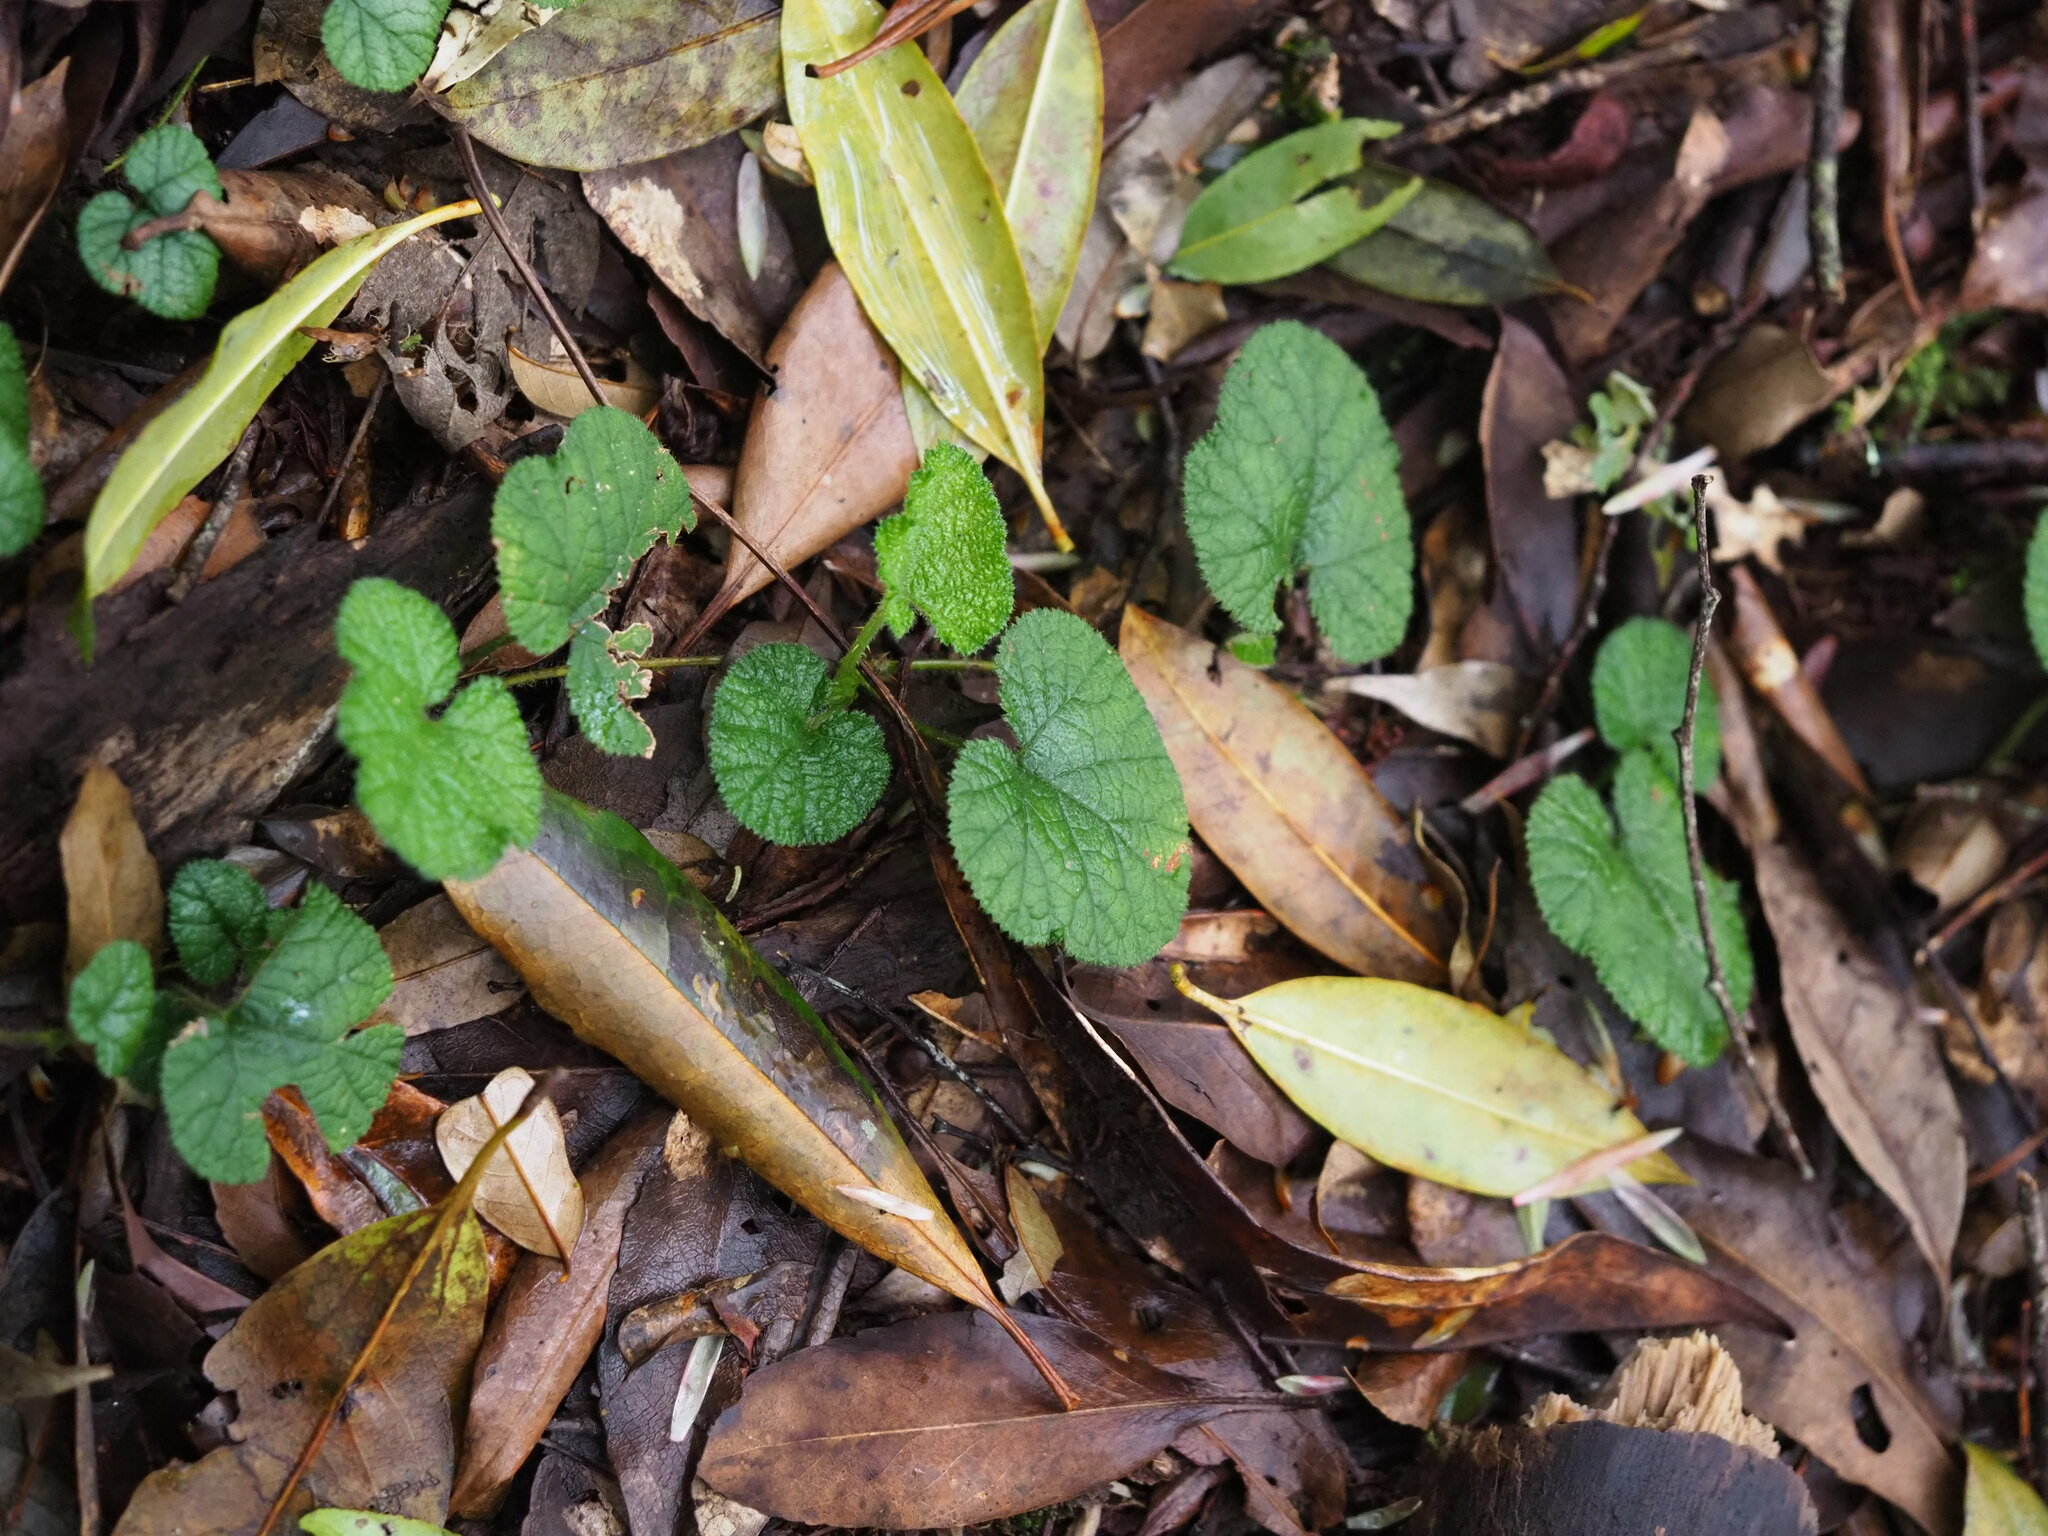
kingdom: Plantae
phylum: Tracheophyta
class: Magnoliopsida
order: Rosales
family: Rosaceae
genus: Rubus
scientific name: Rubus pectinellus
